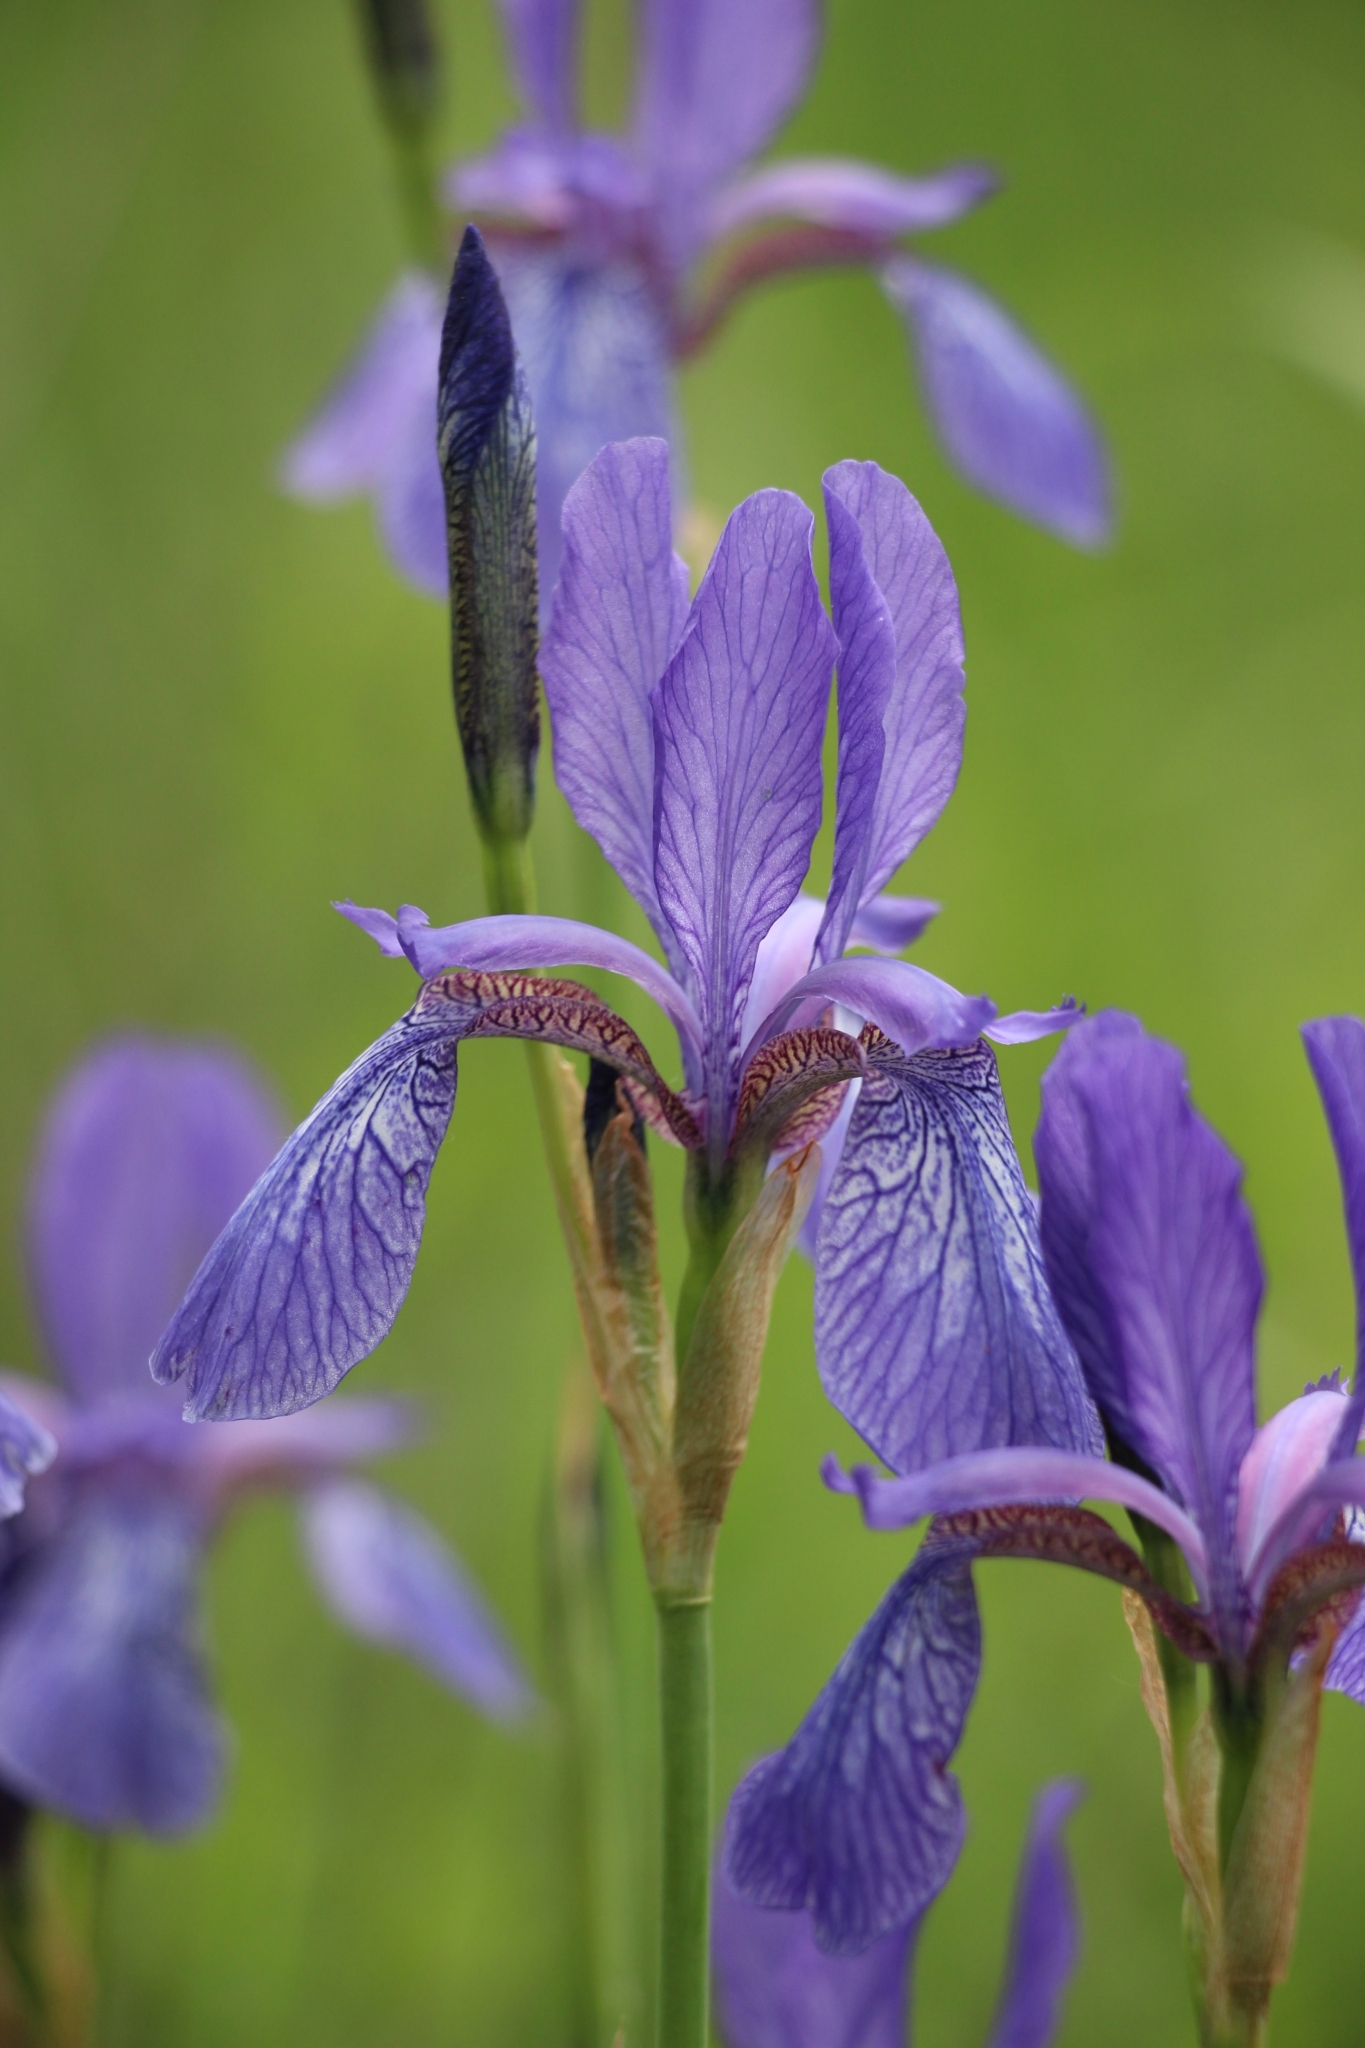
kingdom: Plantae
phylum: Tracheophyta
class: Liliopsida
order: Asparagales
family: Iridaceae
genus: Iris
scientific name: Iris sibirica
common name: Siberian iris
